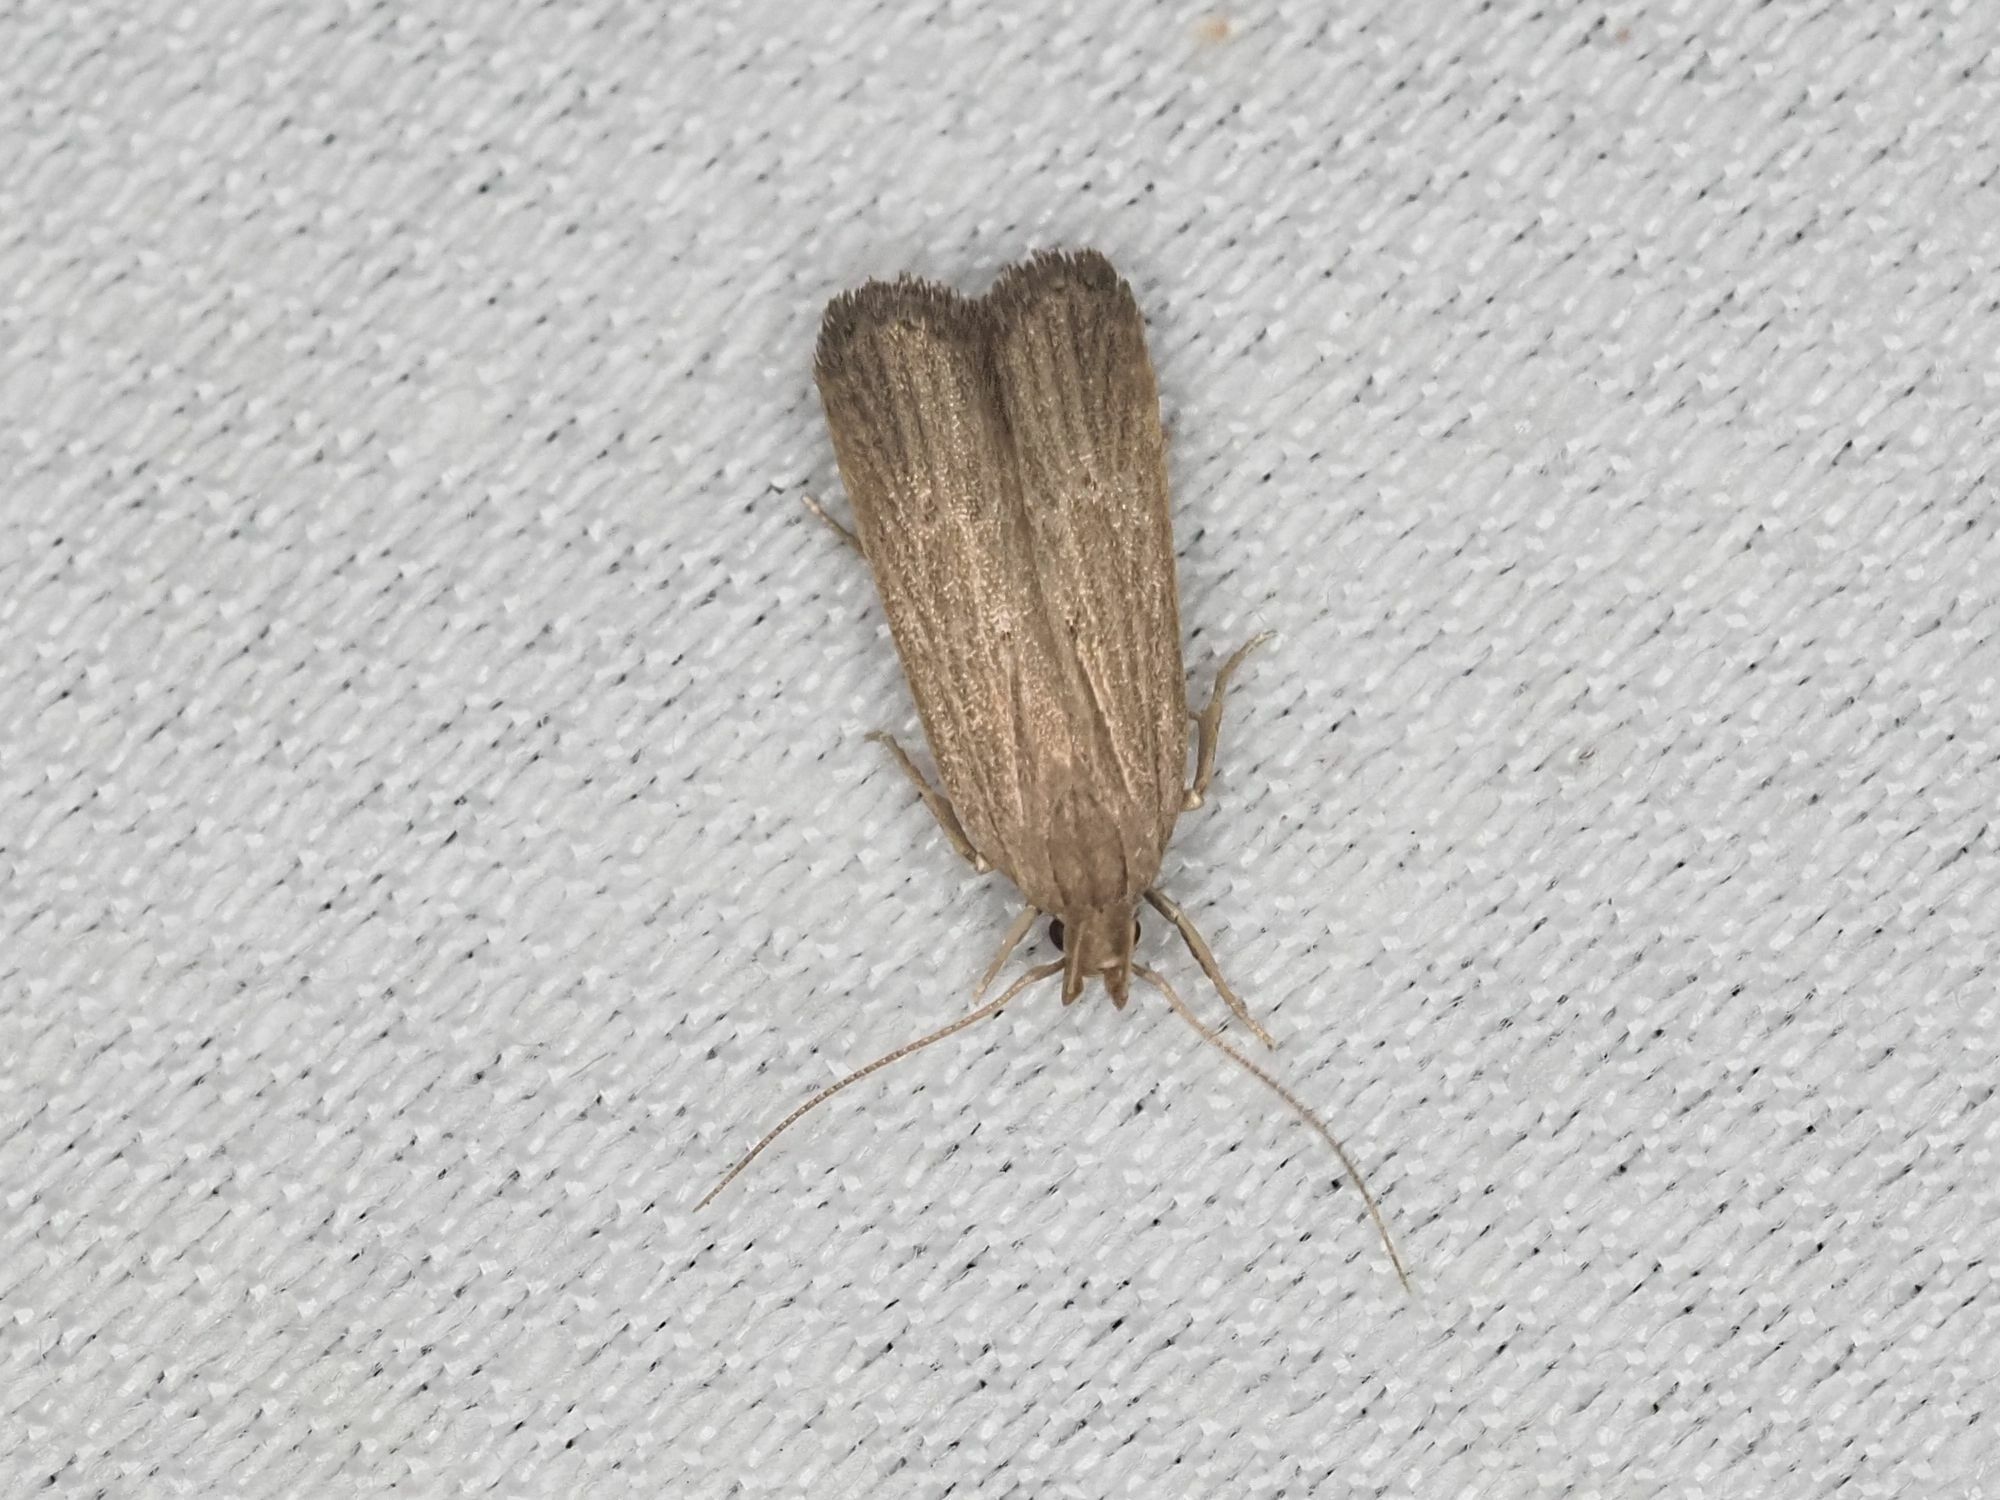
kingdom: Animalia
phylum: Arthropoda
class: Insecta
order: Lepidoptera
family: Gelechiidae
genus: Helcystogramma
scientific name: Helcystogramma arulensis
